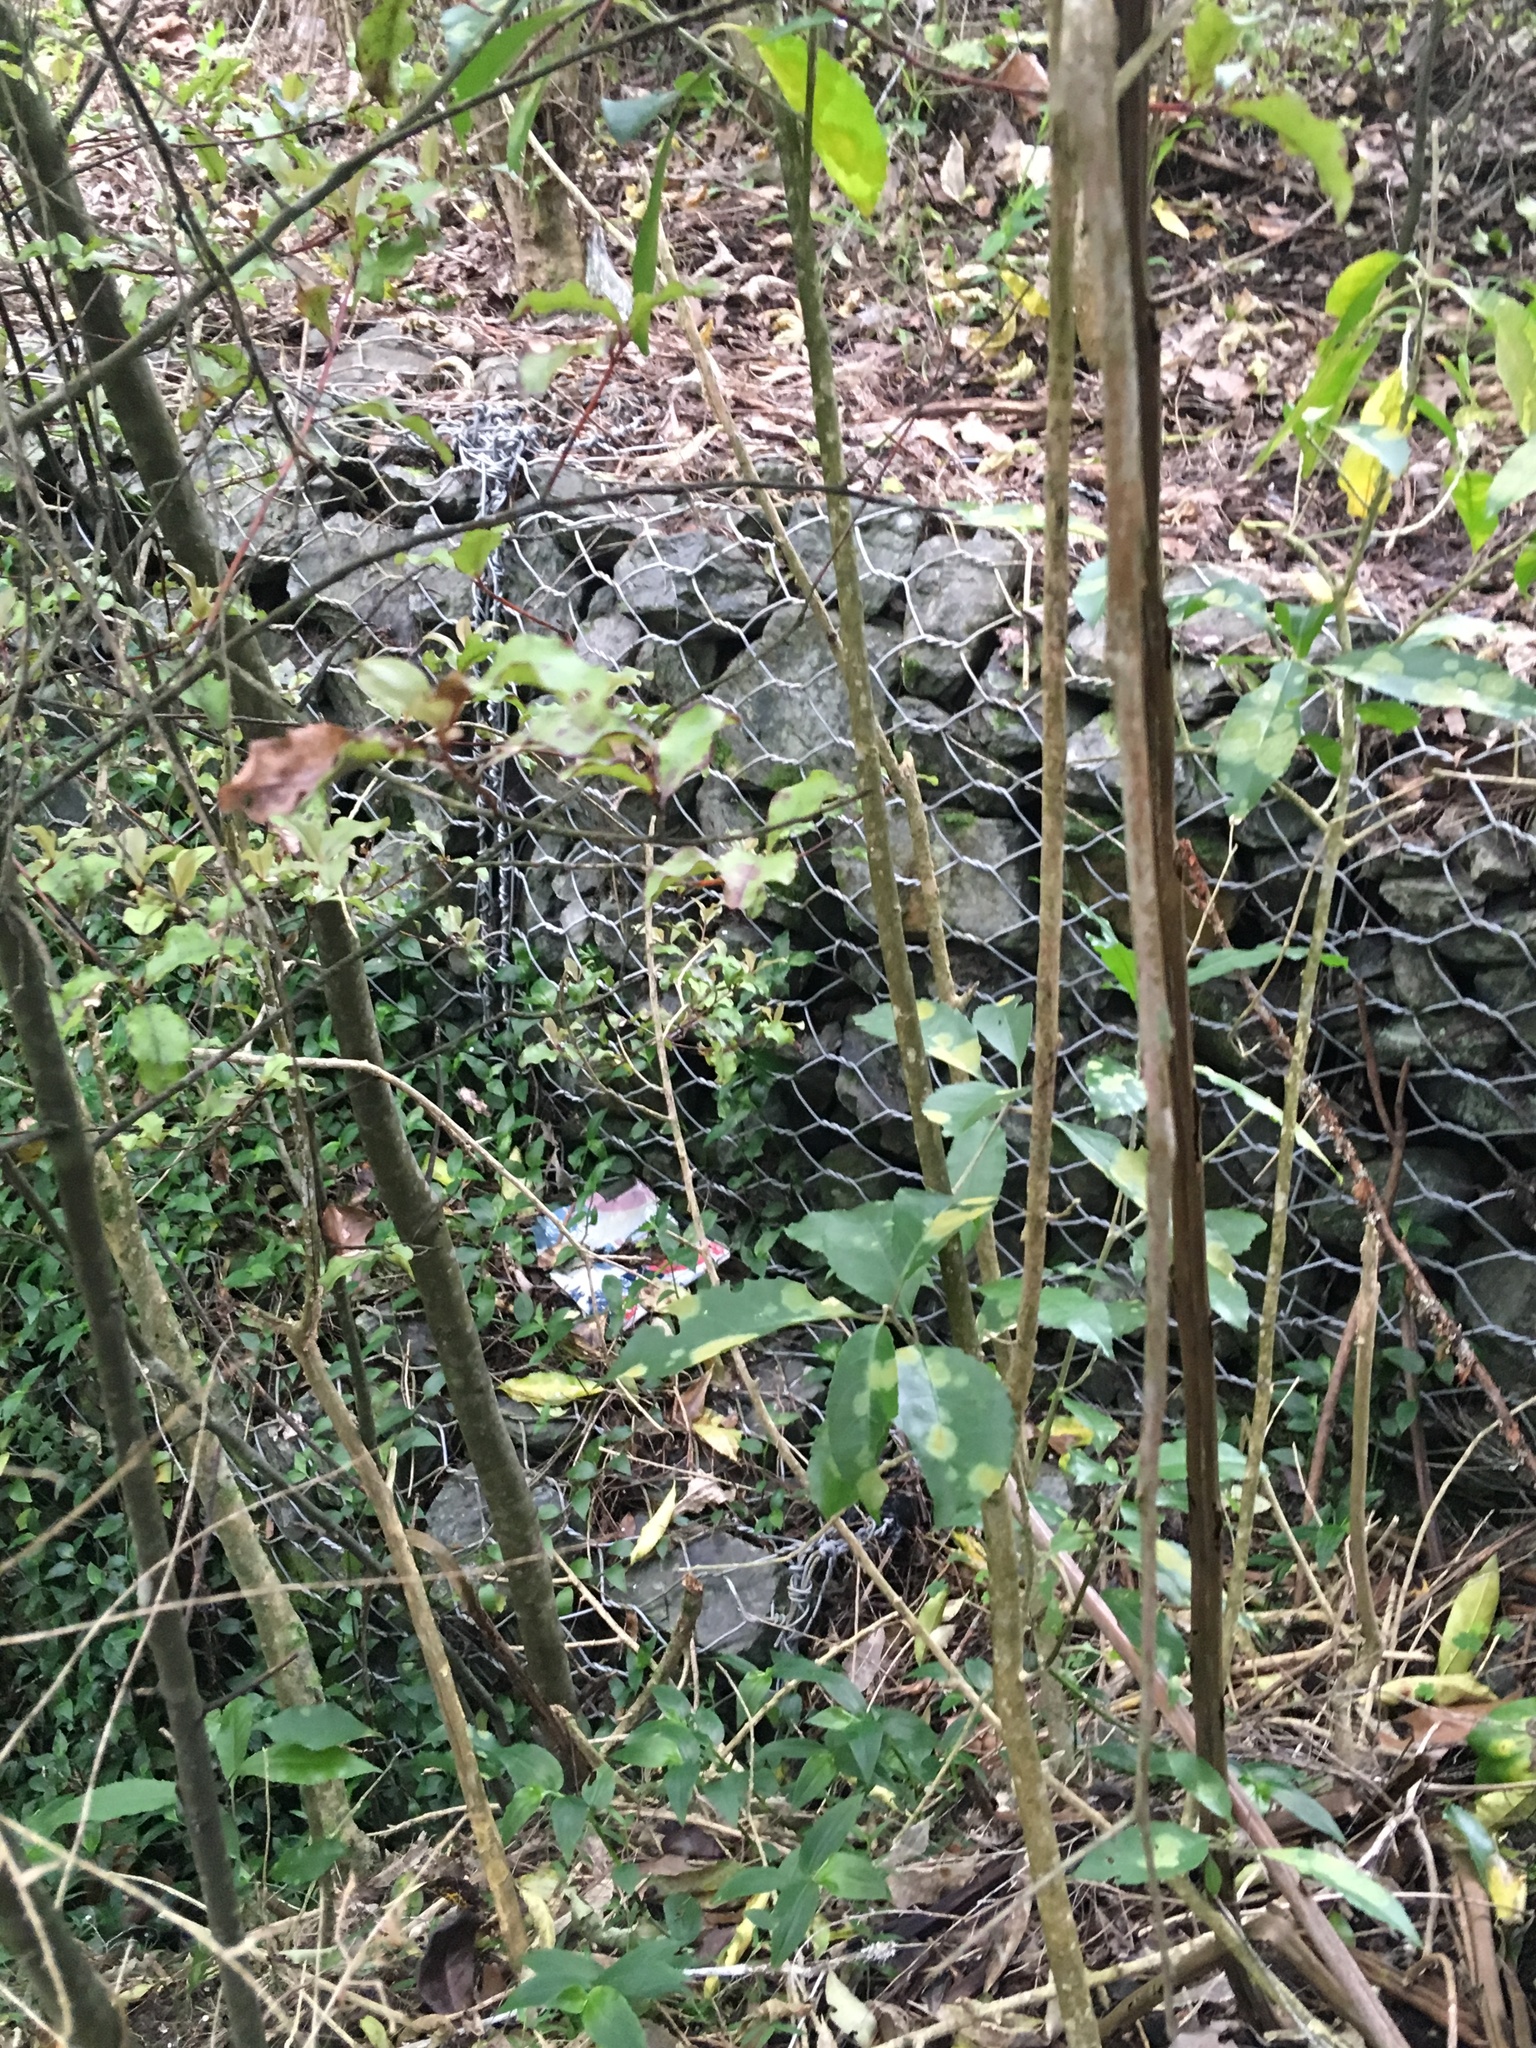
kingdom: Plantae
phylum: Tracheophyta
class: Liliopsida
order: Commelinales
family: Commelinaceae
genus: Tradescantia
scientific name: Tradescantia fluminensis
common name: Wandering-jew
